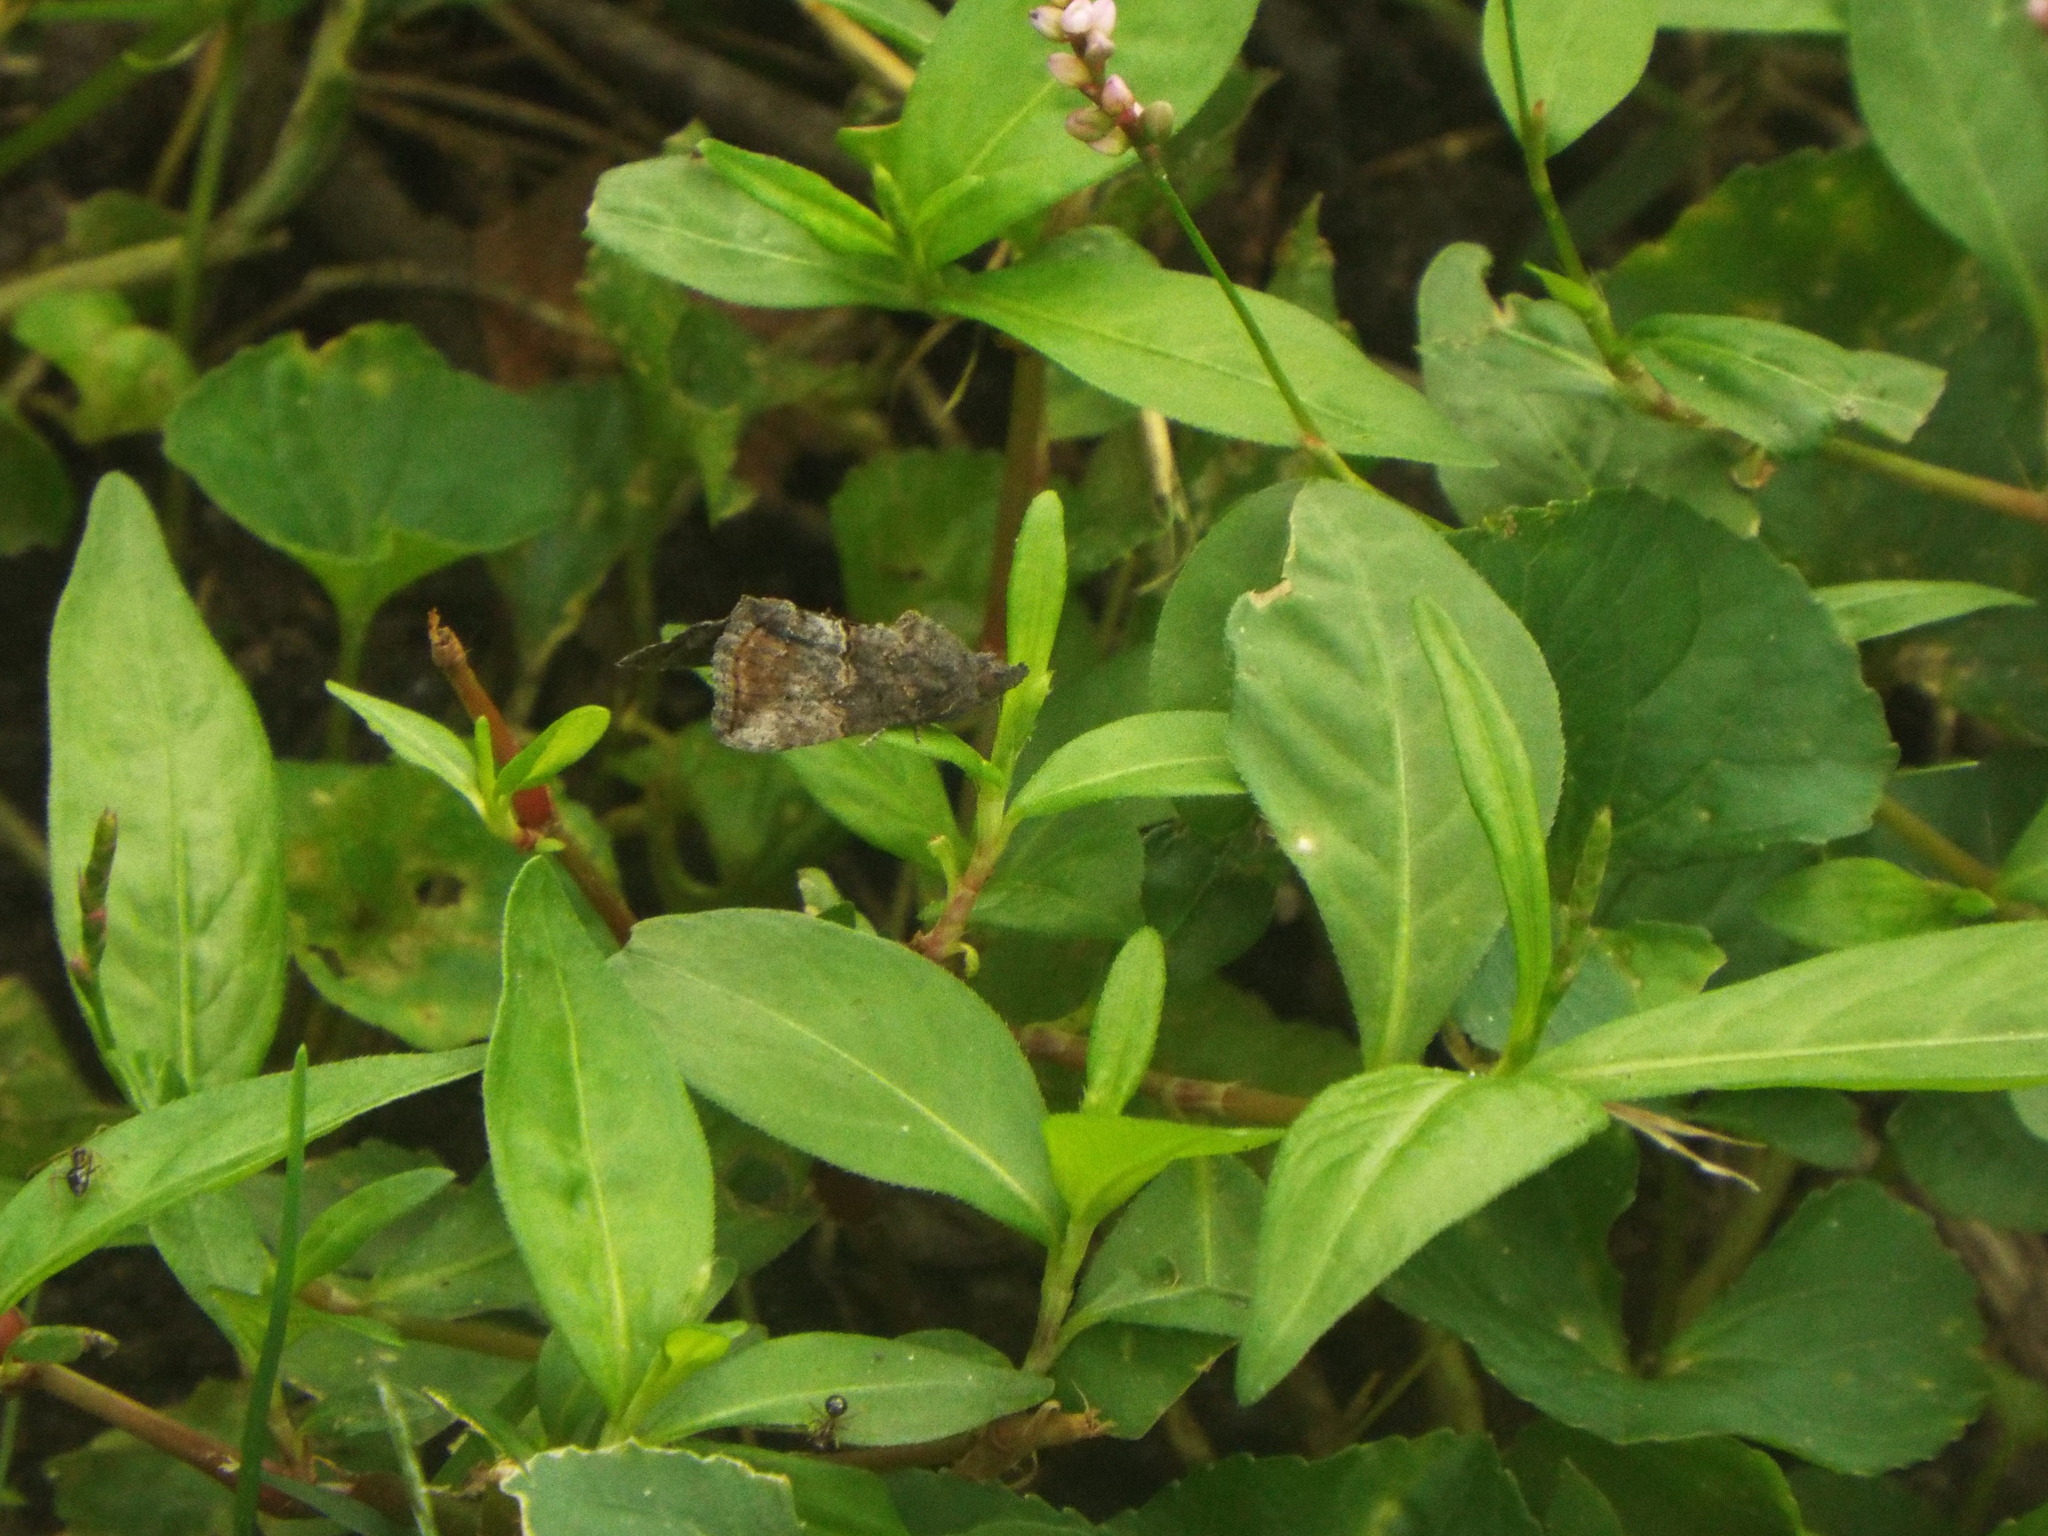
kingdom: Animalia
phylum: Arthropoda
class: Insecta
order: Lepidoptera
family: Erebidae
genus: Hypena
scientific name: Hypena scabra
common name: Green cloverworm
